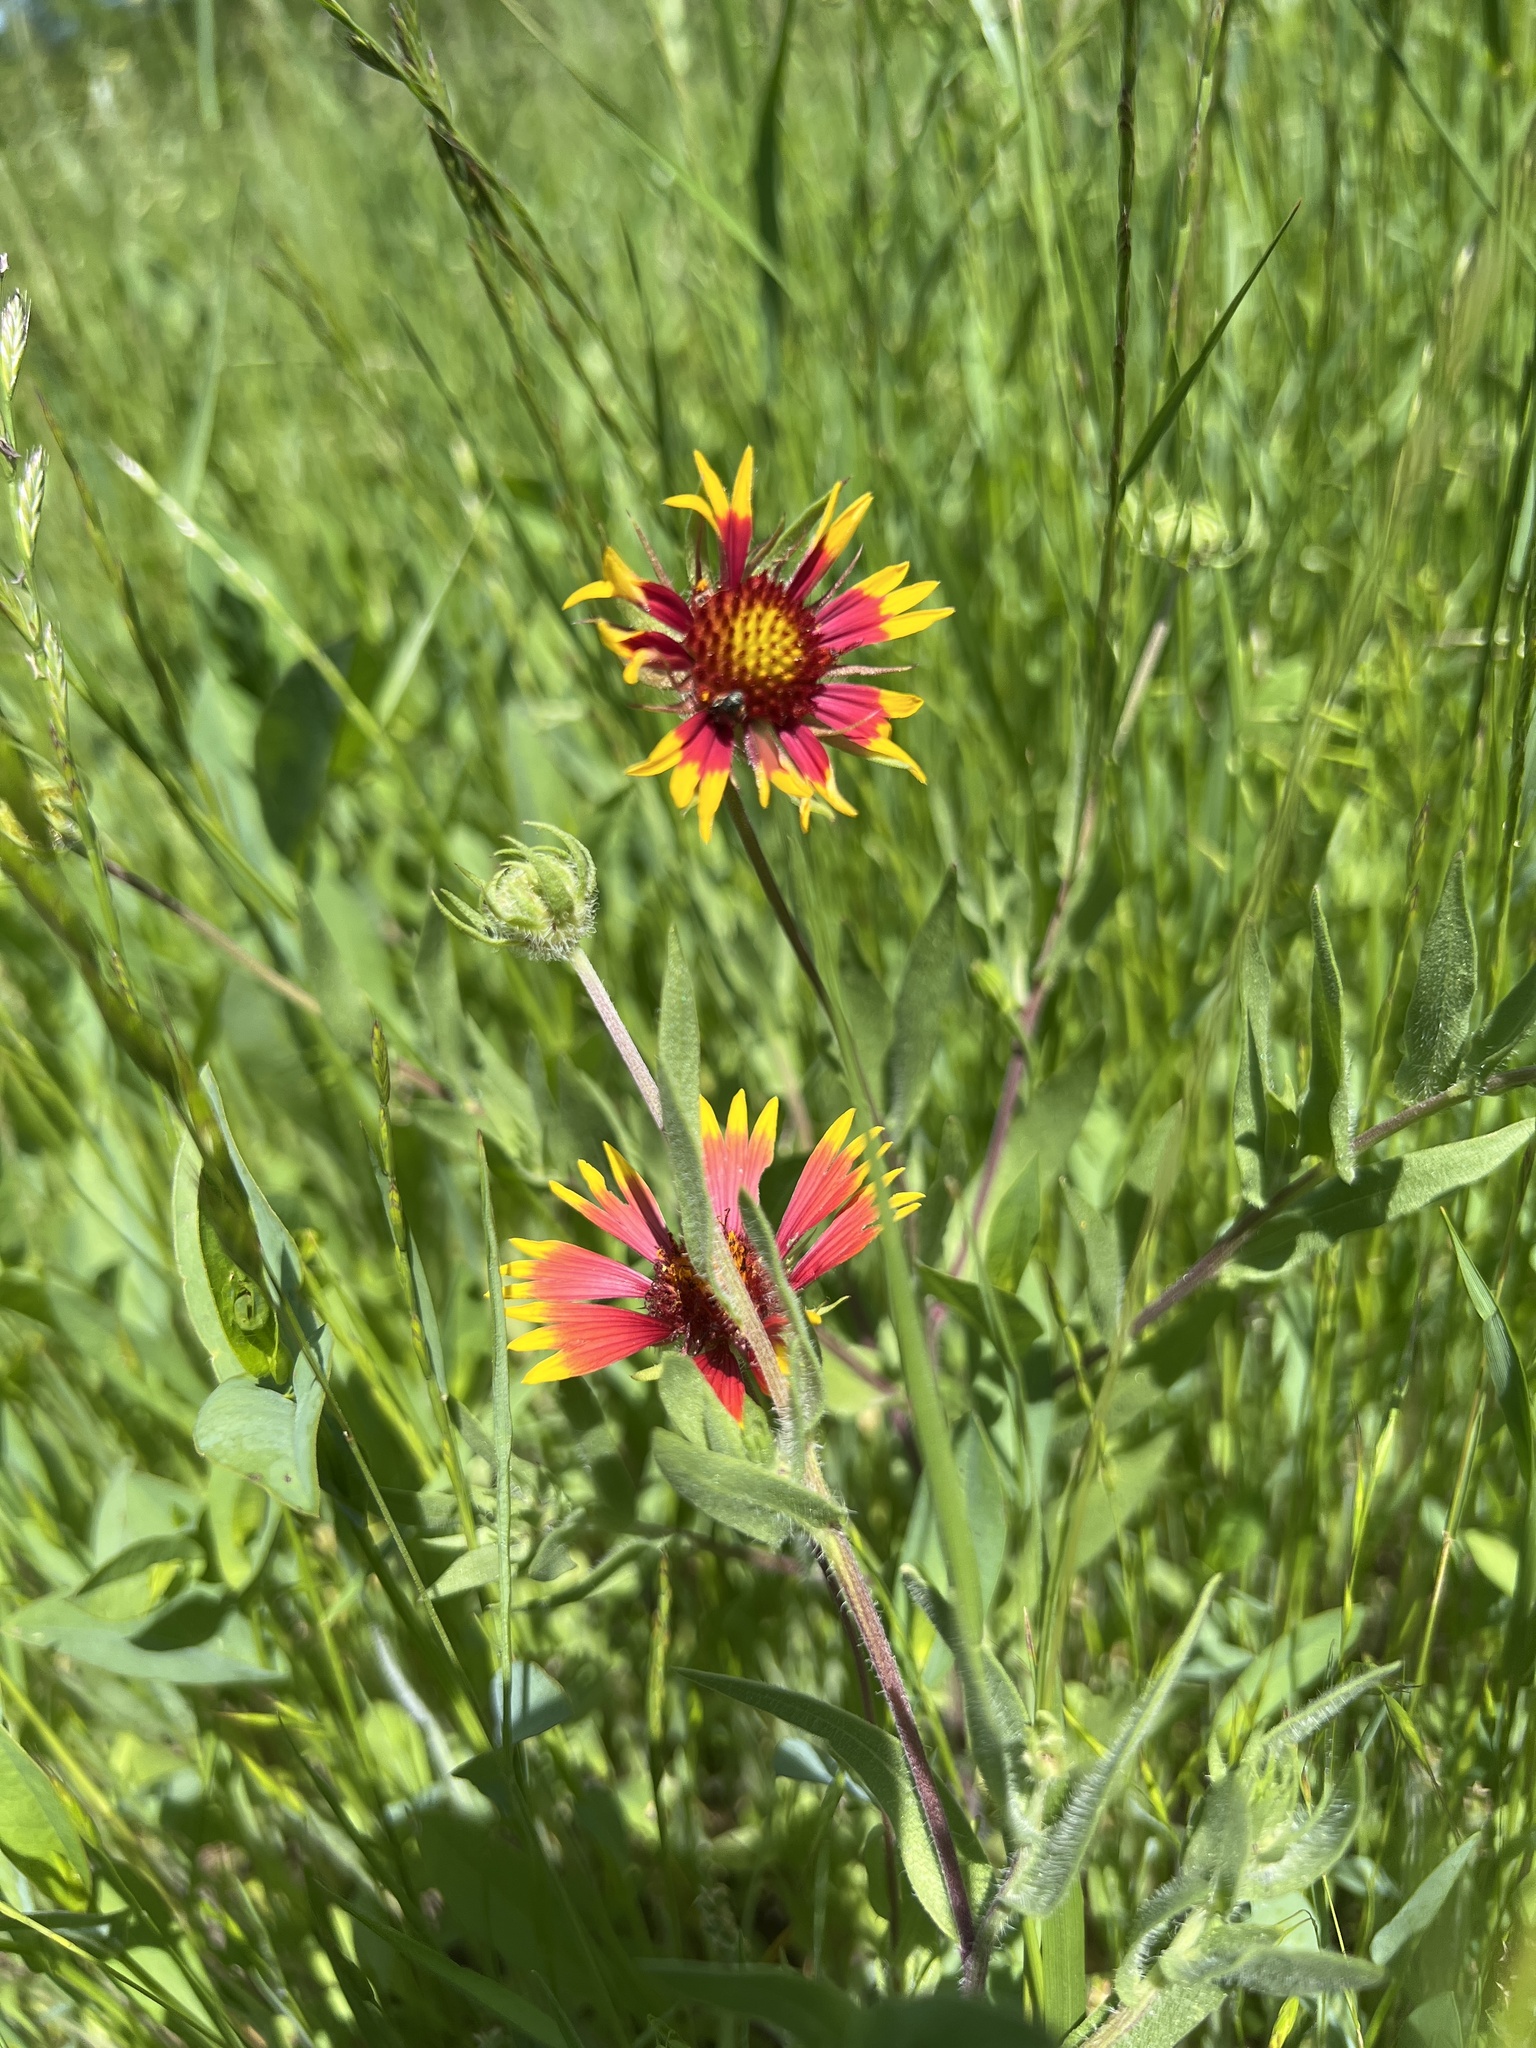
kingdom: Plantae
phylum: Tracheophyta
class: Magnoliopsida
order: Asterales
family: Asteraceae
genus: Gaillardia
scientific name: Gaillardia pulchella
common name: Firewheel
